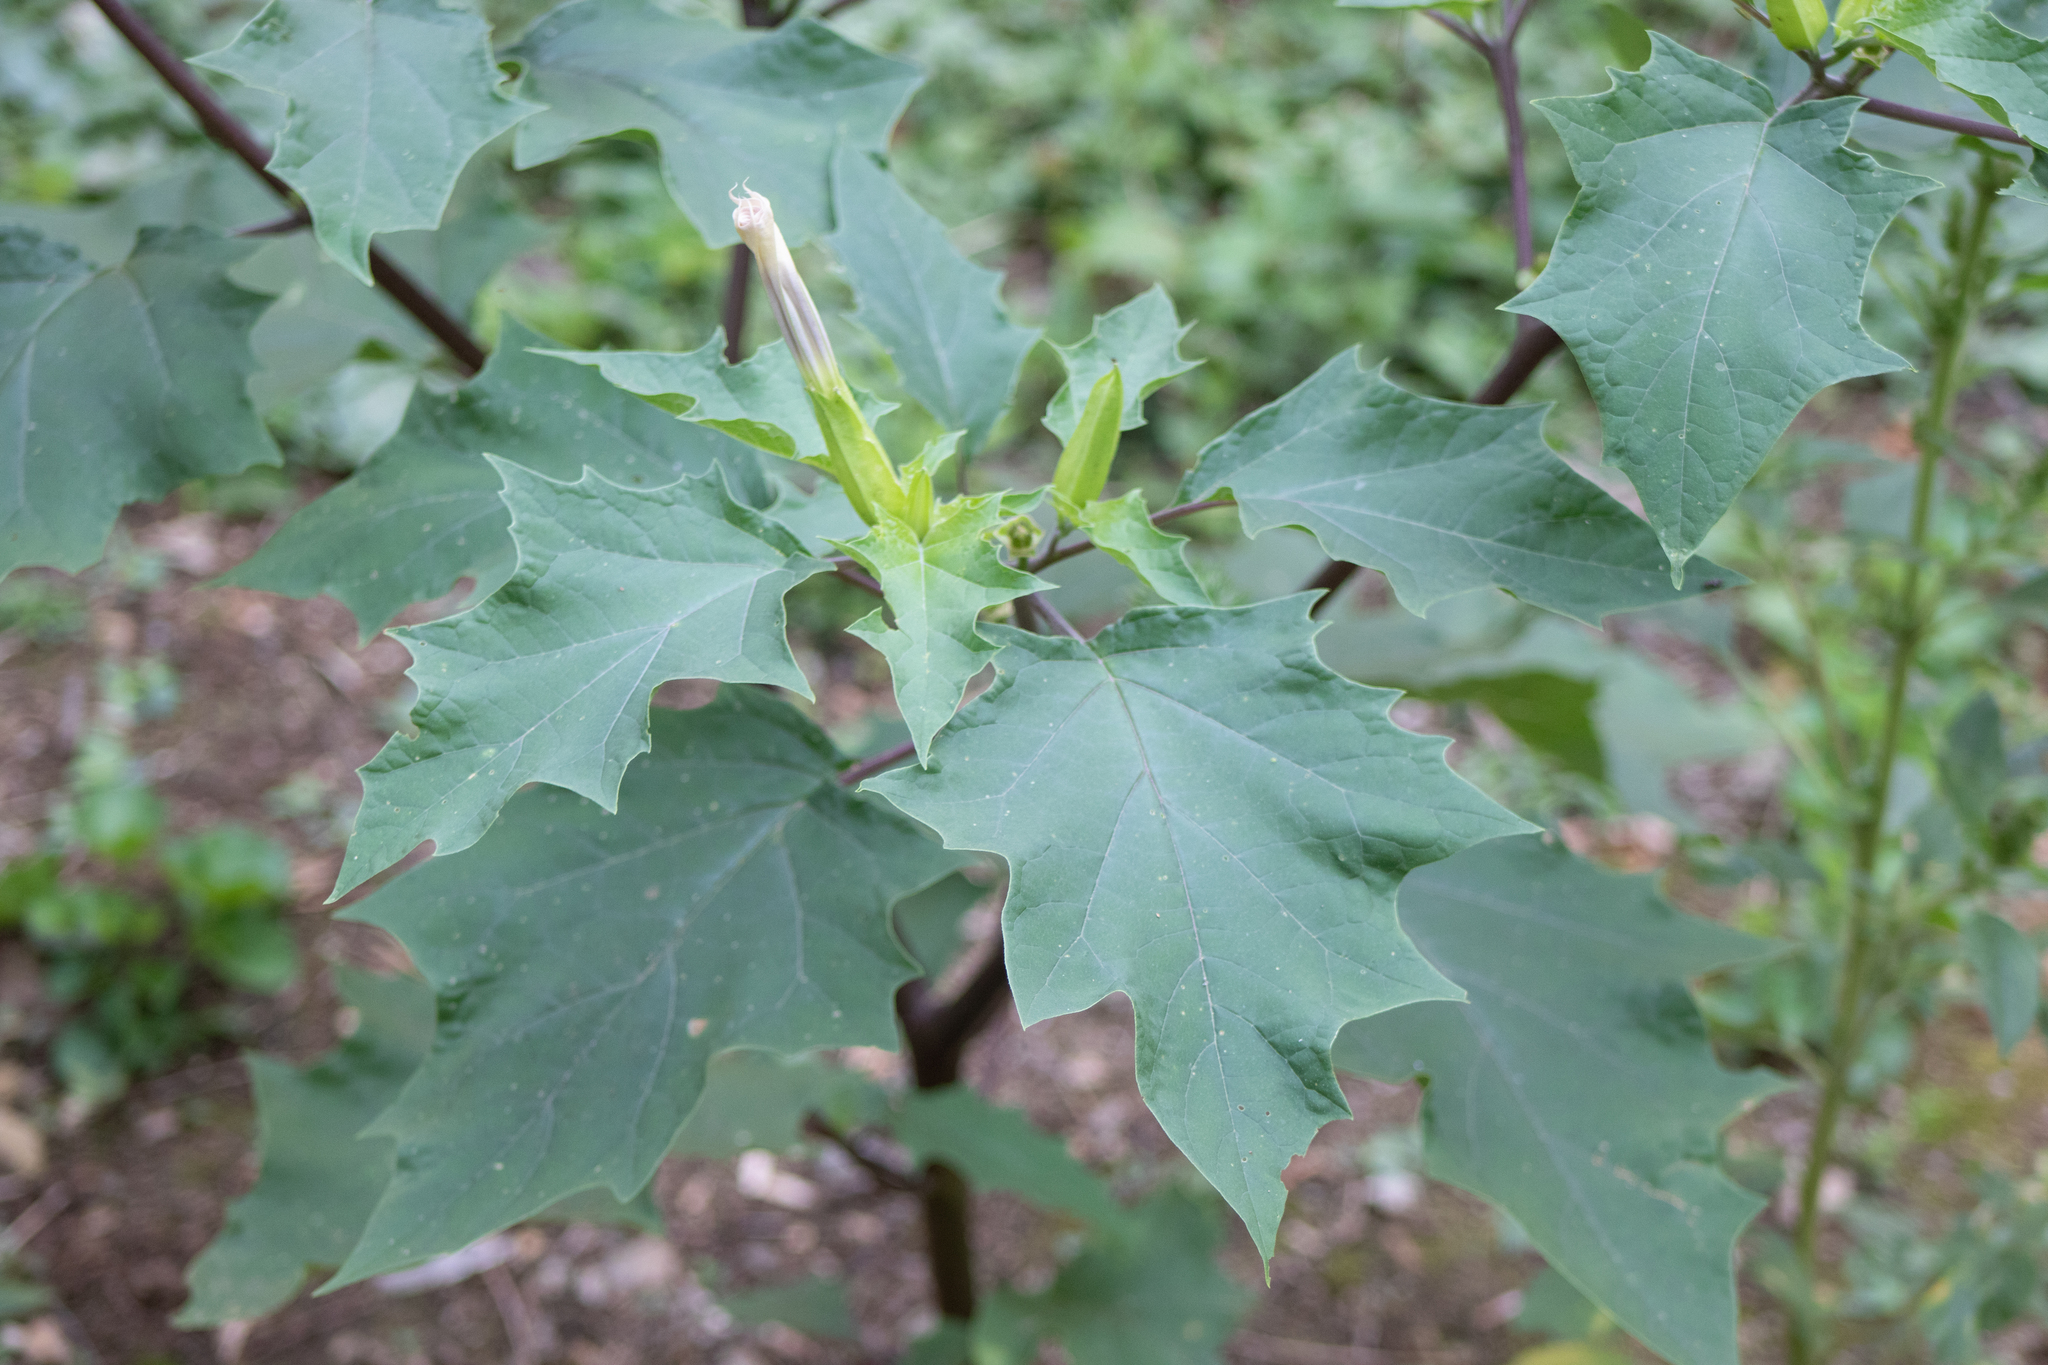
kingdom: Plantae
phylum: Tracheophyta
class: Magnoliopsida
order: Solanales
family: Solanaceae
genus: Datura
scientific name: Datura stramonium
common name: Thorn-apple
